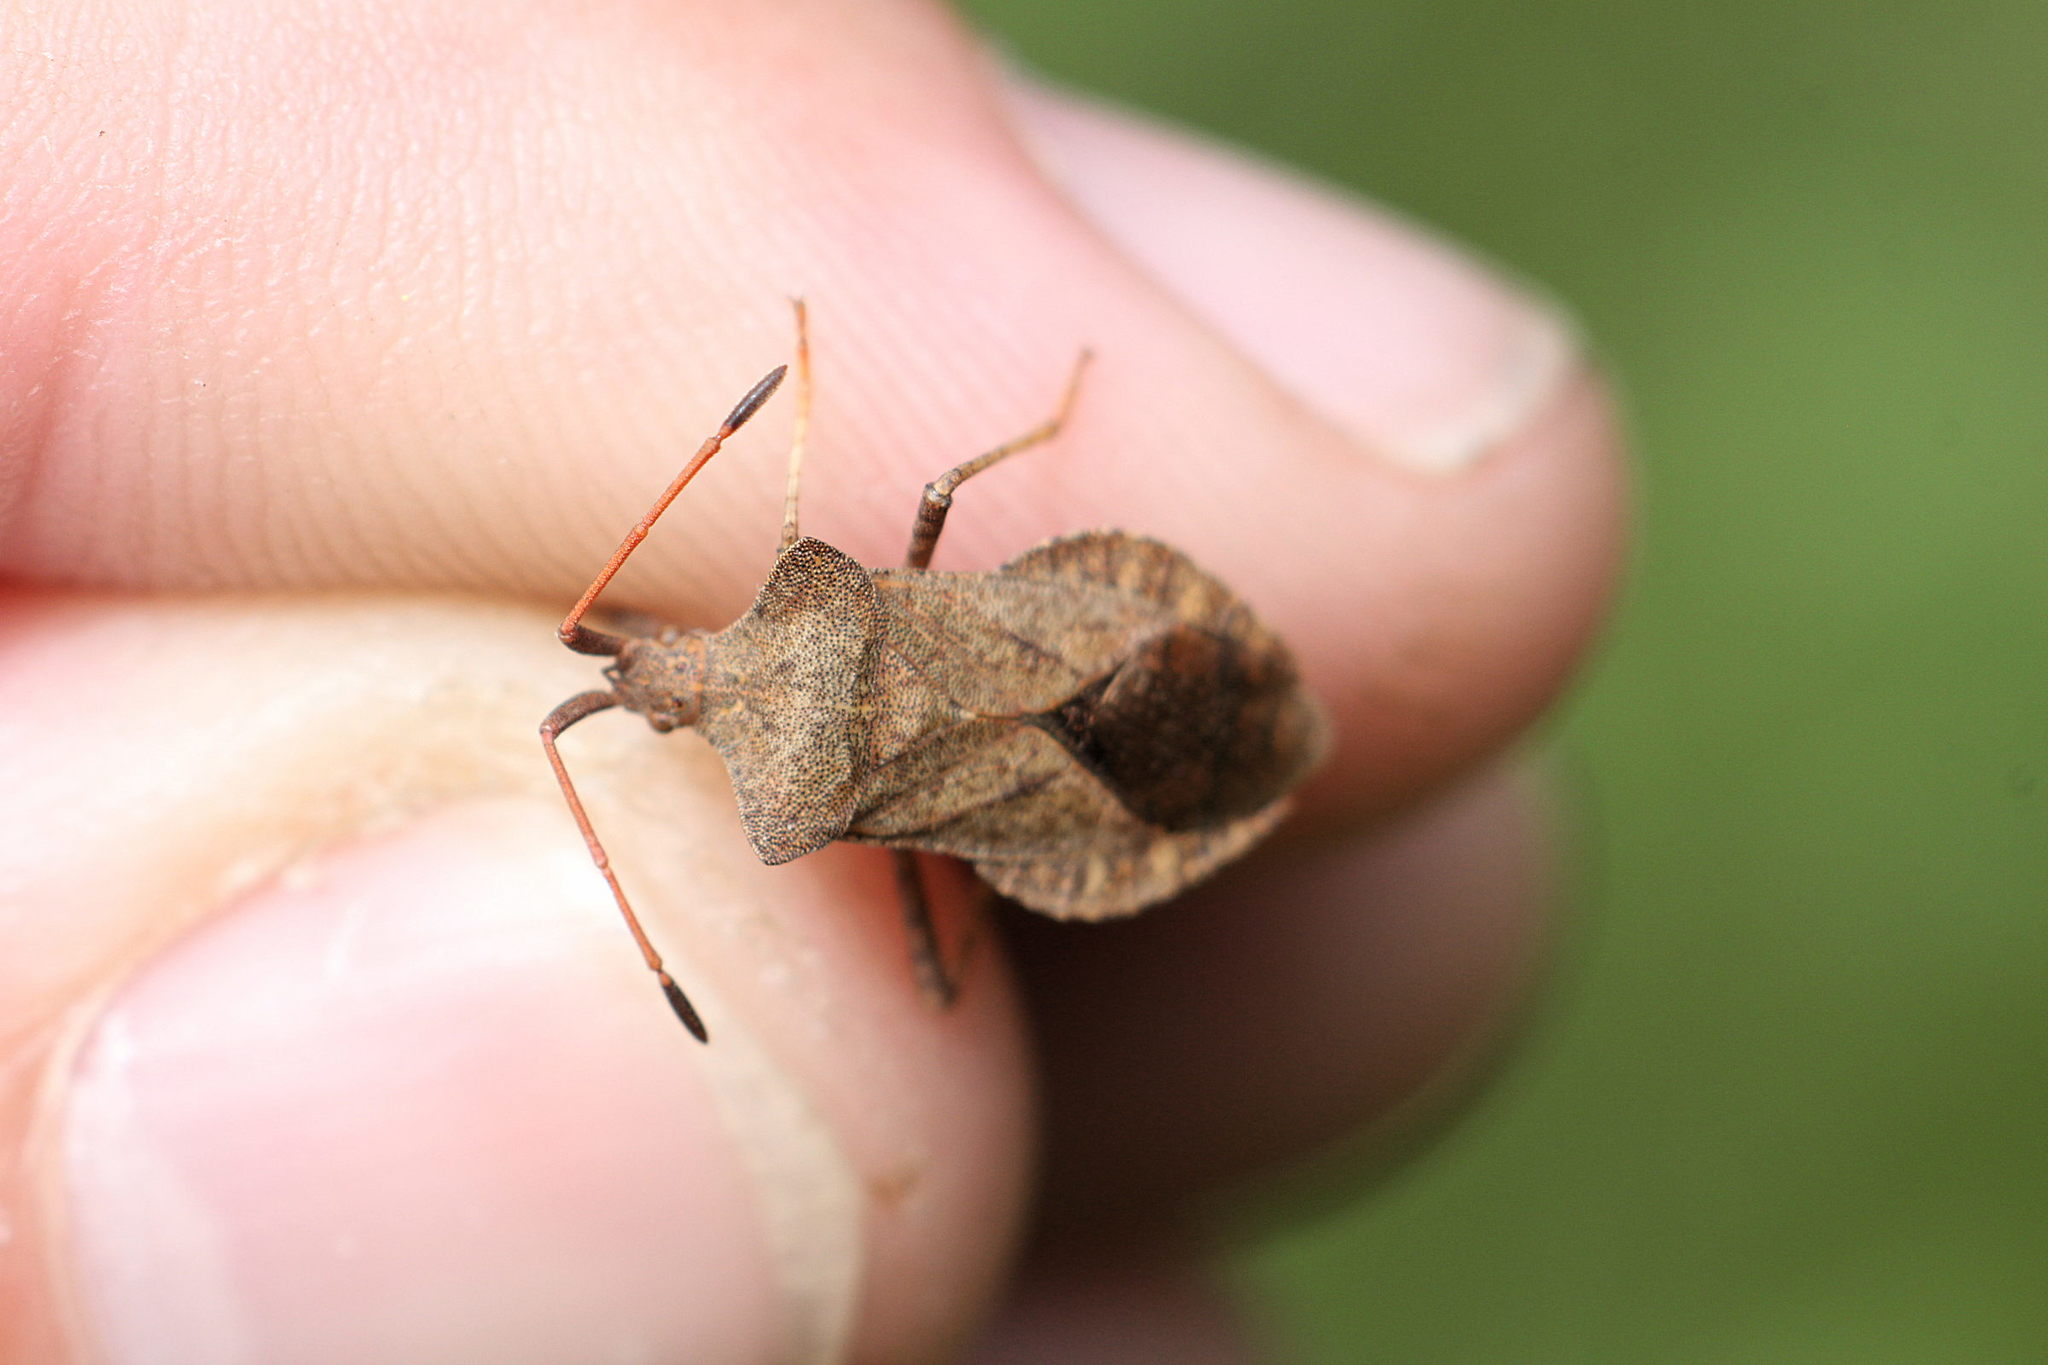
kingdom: Animalia
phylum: Arthropoda
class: Insecta
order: Hemiptera
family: Coreidae
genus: Coreus
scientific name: Coreus marginatus
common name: Dock bug
